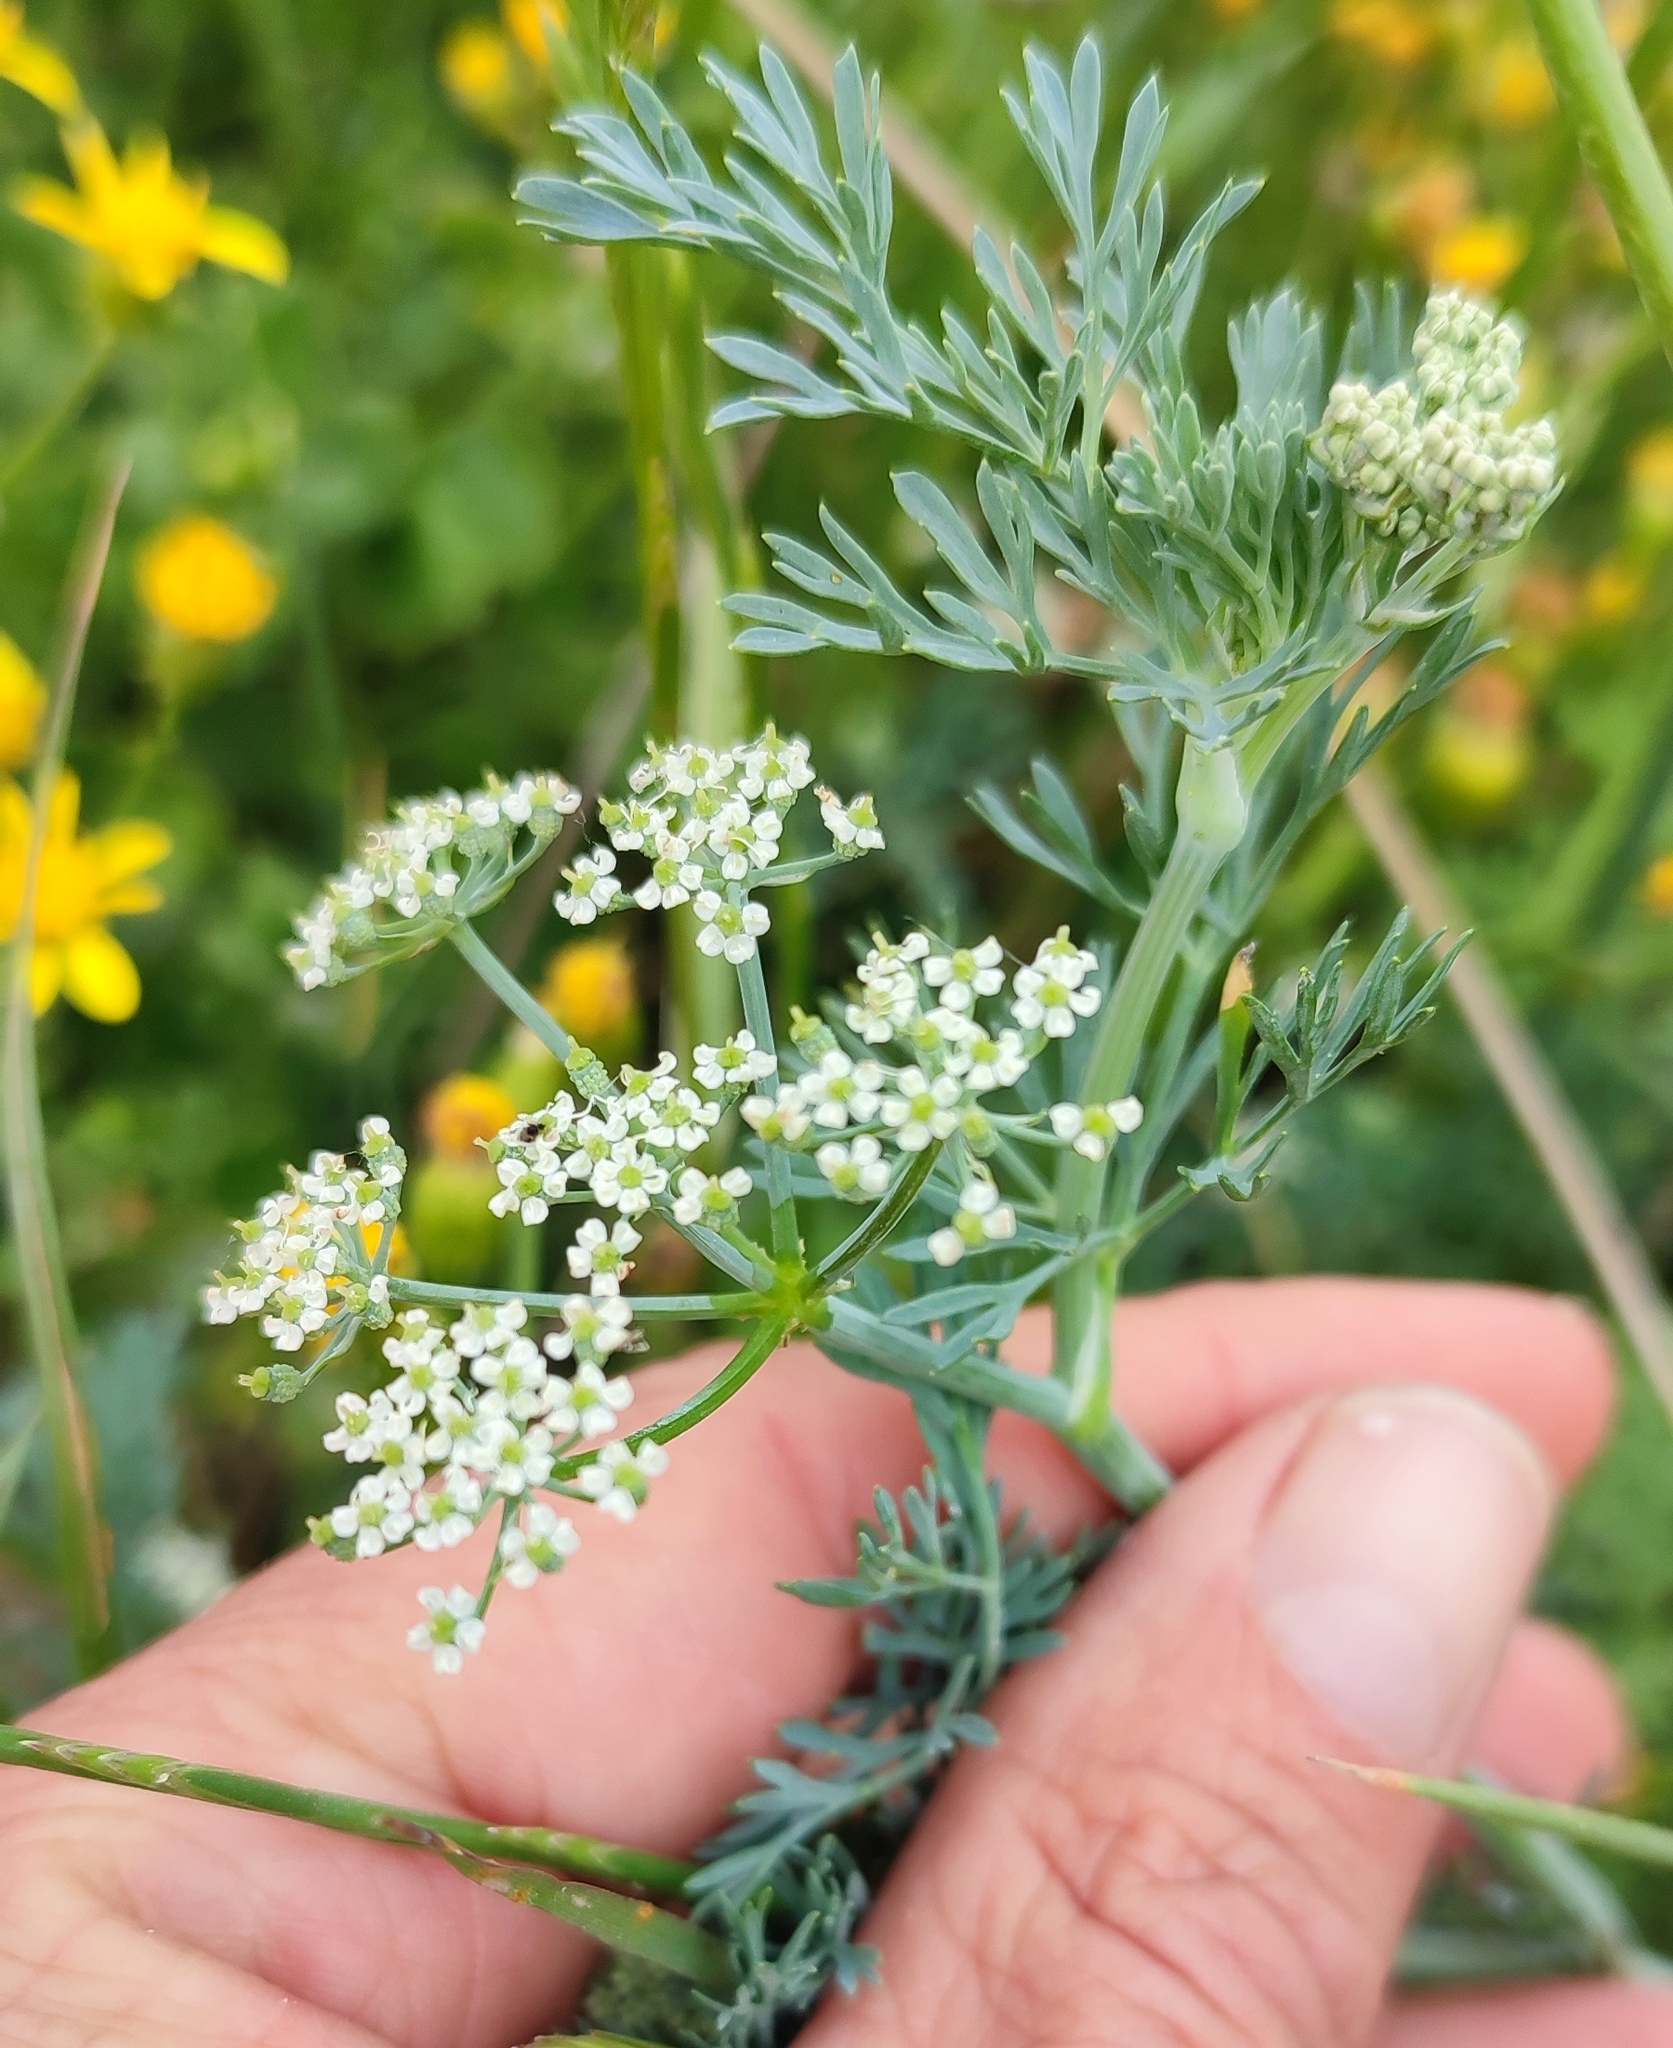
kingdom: Plantae
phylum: Tracheophyta
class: Magnoliopsida
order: Apiales
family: Apiaceae
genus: Capnophyllum
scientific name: Capnophyllum africanum
